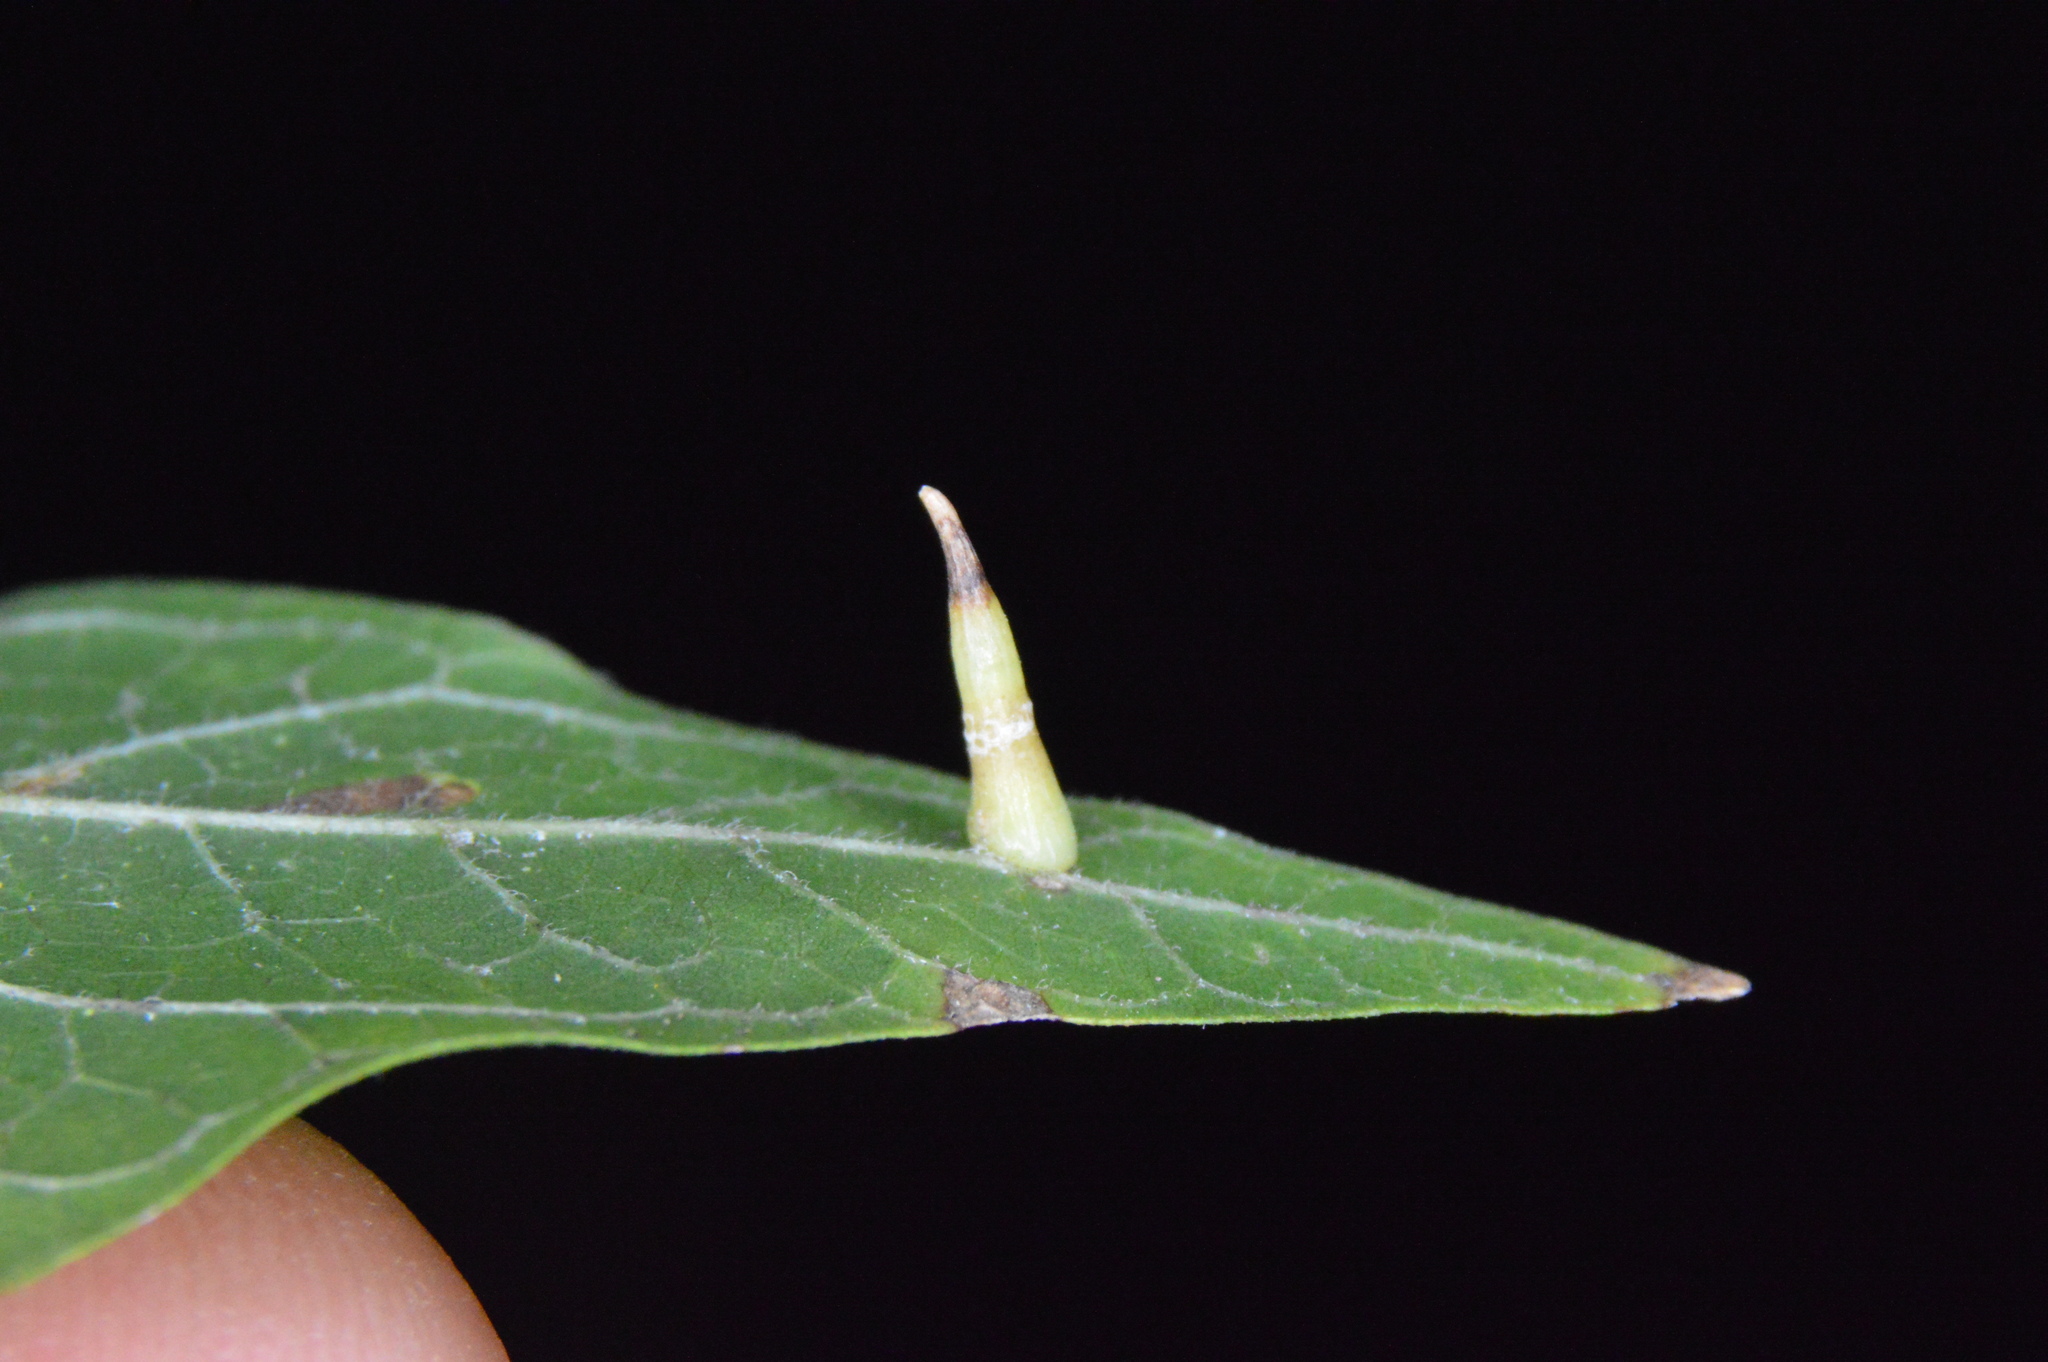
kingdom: Animalia
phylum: Arthropoda
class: Insecta
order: Diptera
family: Cecidomyiidae
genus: Celticecis
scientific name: Celticecis subulata
